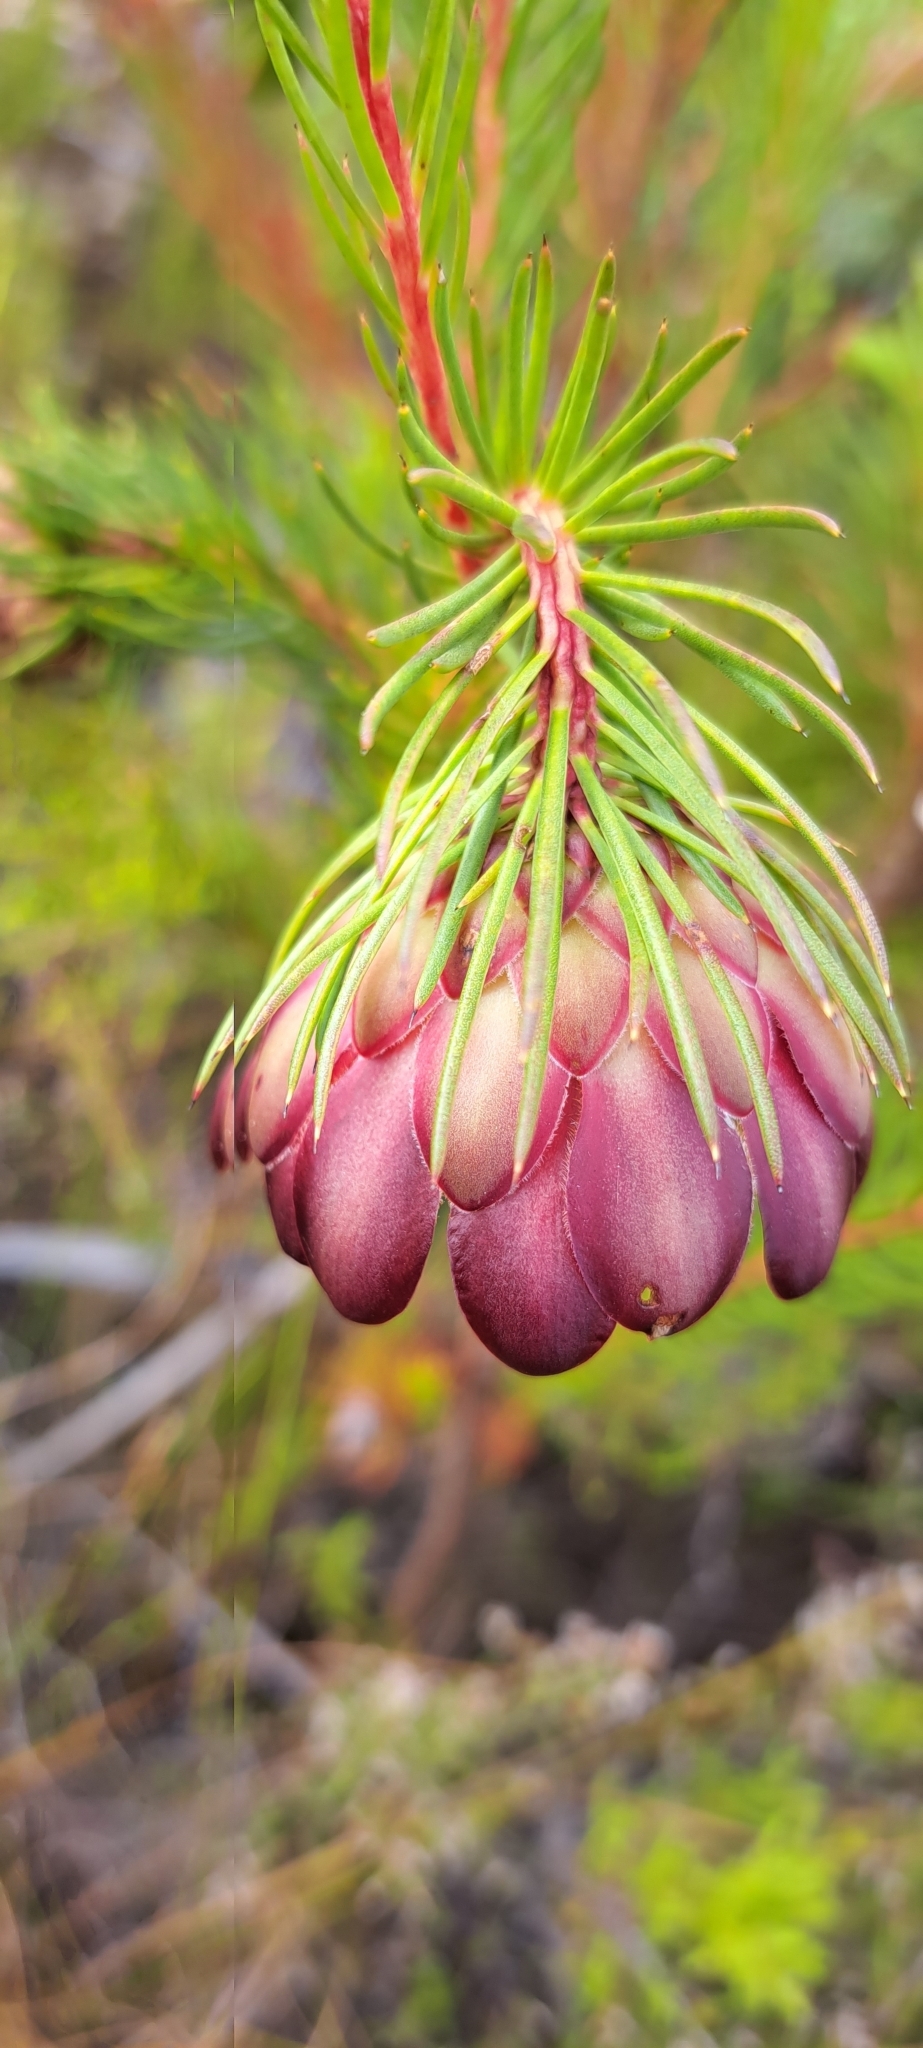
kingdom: Plantae
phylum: Tracheophyta
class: Magnoliopsida
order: Proteales
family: Proteaceae
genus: Protea
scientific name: Protea nana
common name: Mountain rose
